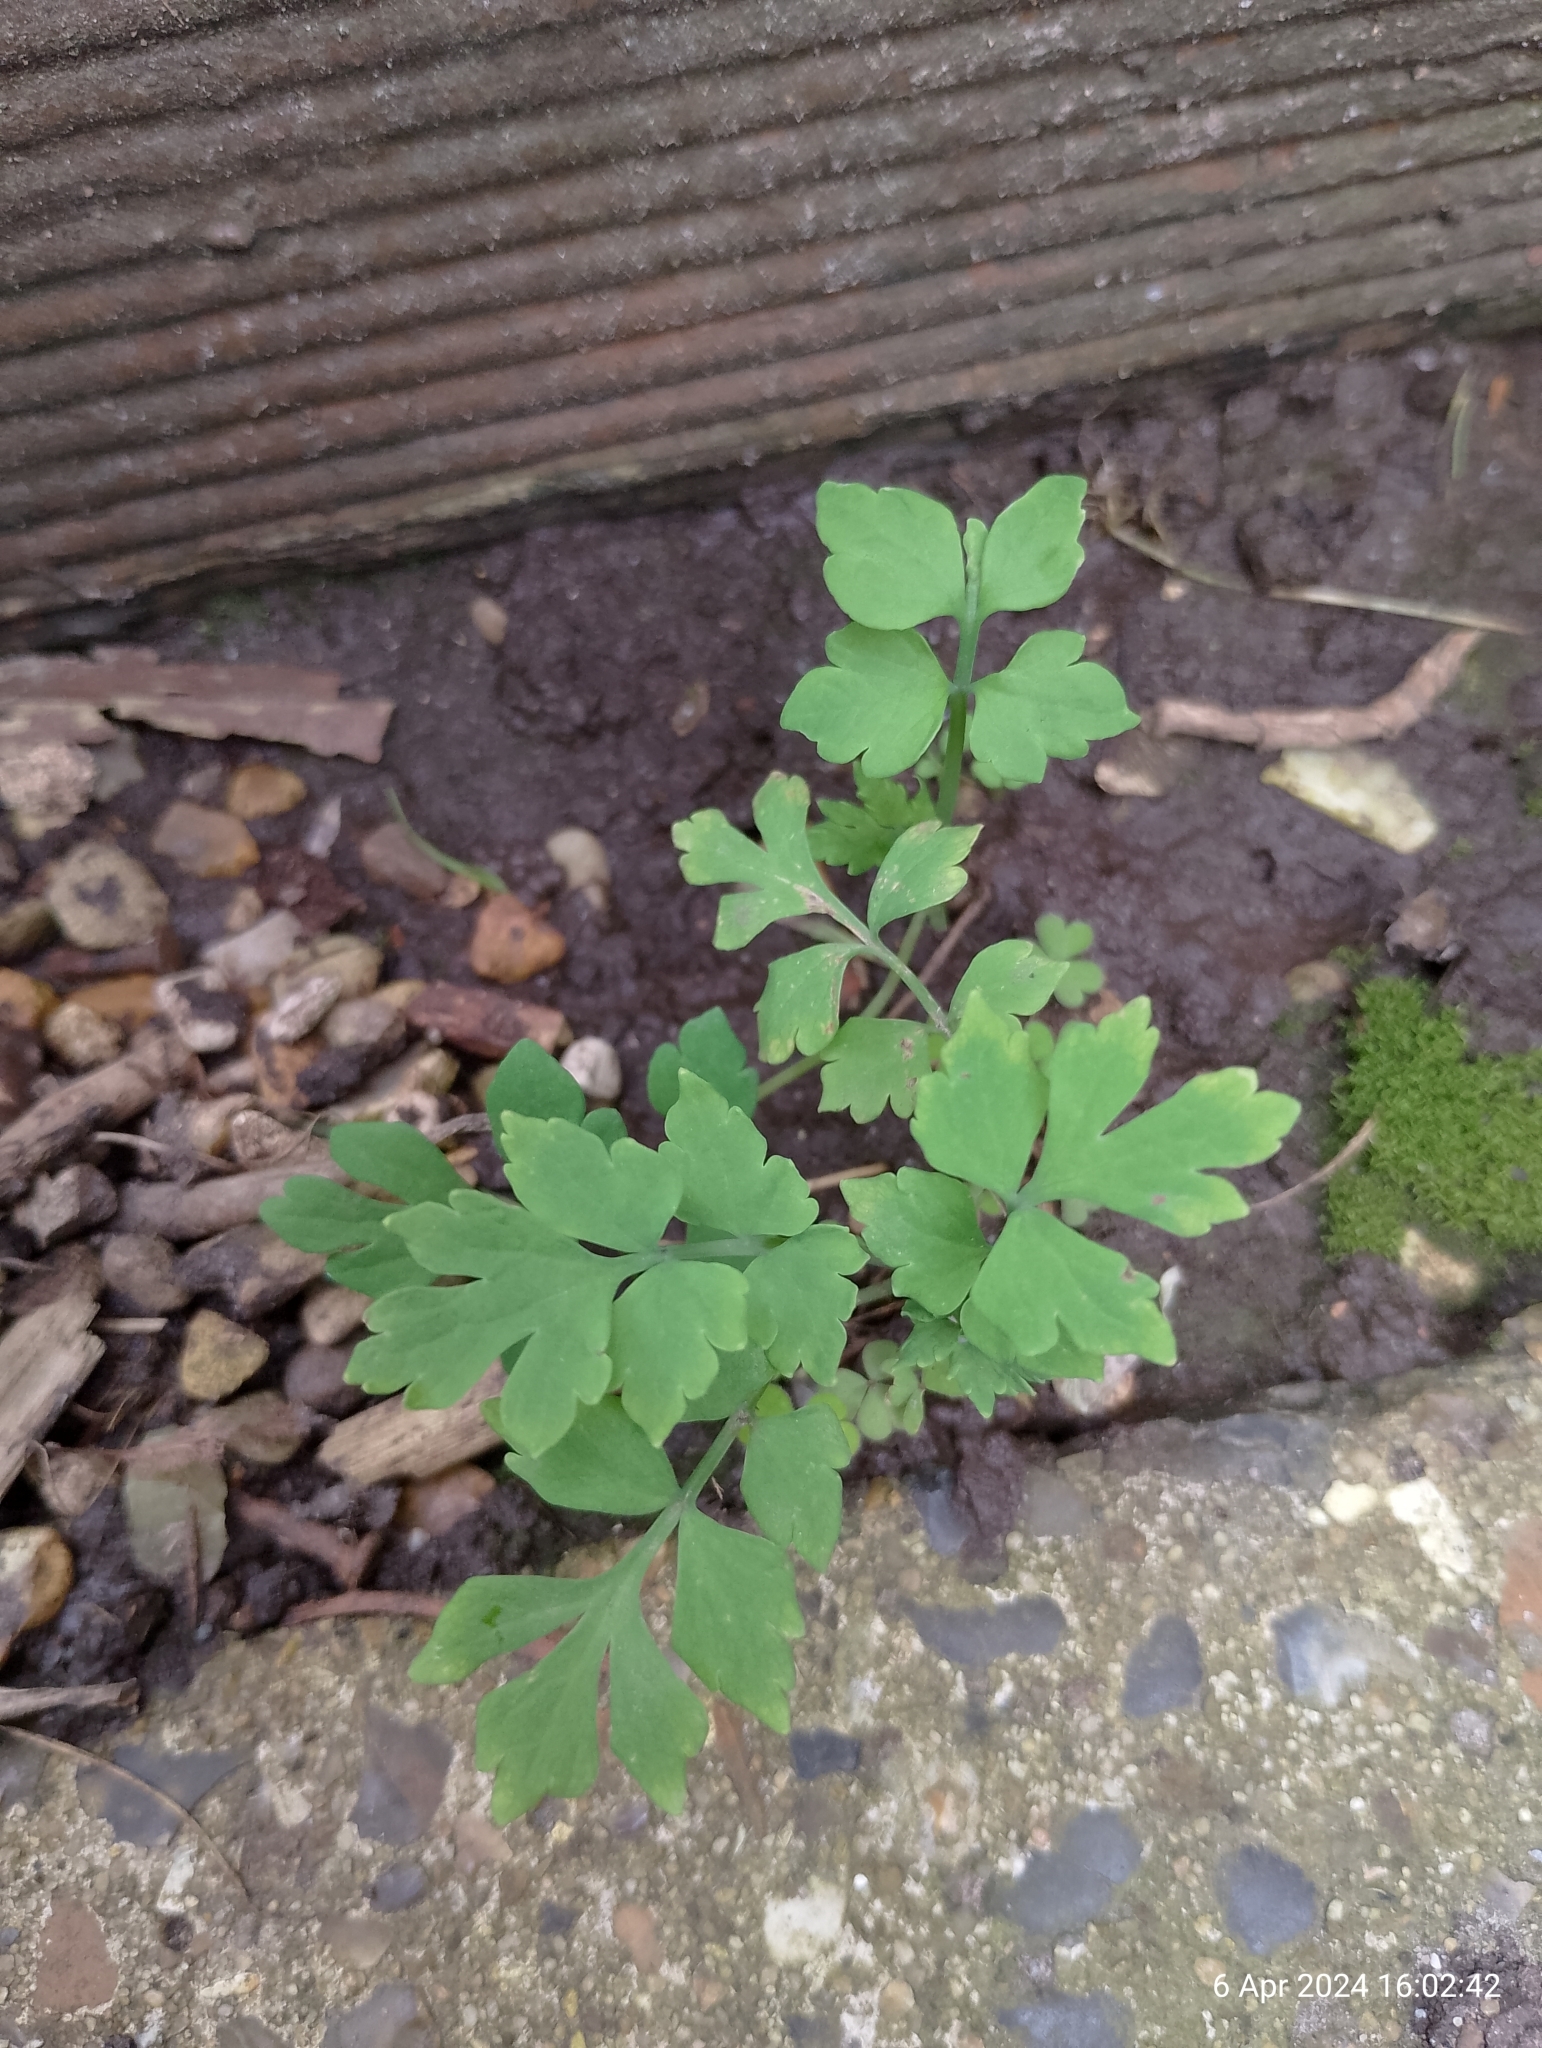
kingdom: Plantae
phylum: Tracheophyta
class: Magnoliopsida
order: Ranunculales
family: Papaveraceae
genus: Papaver
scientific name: Papaver cambricum
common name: Poppy
